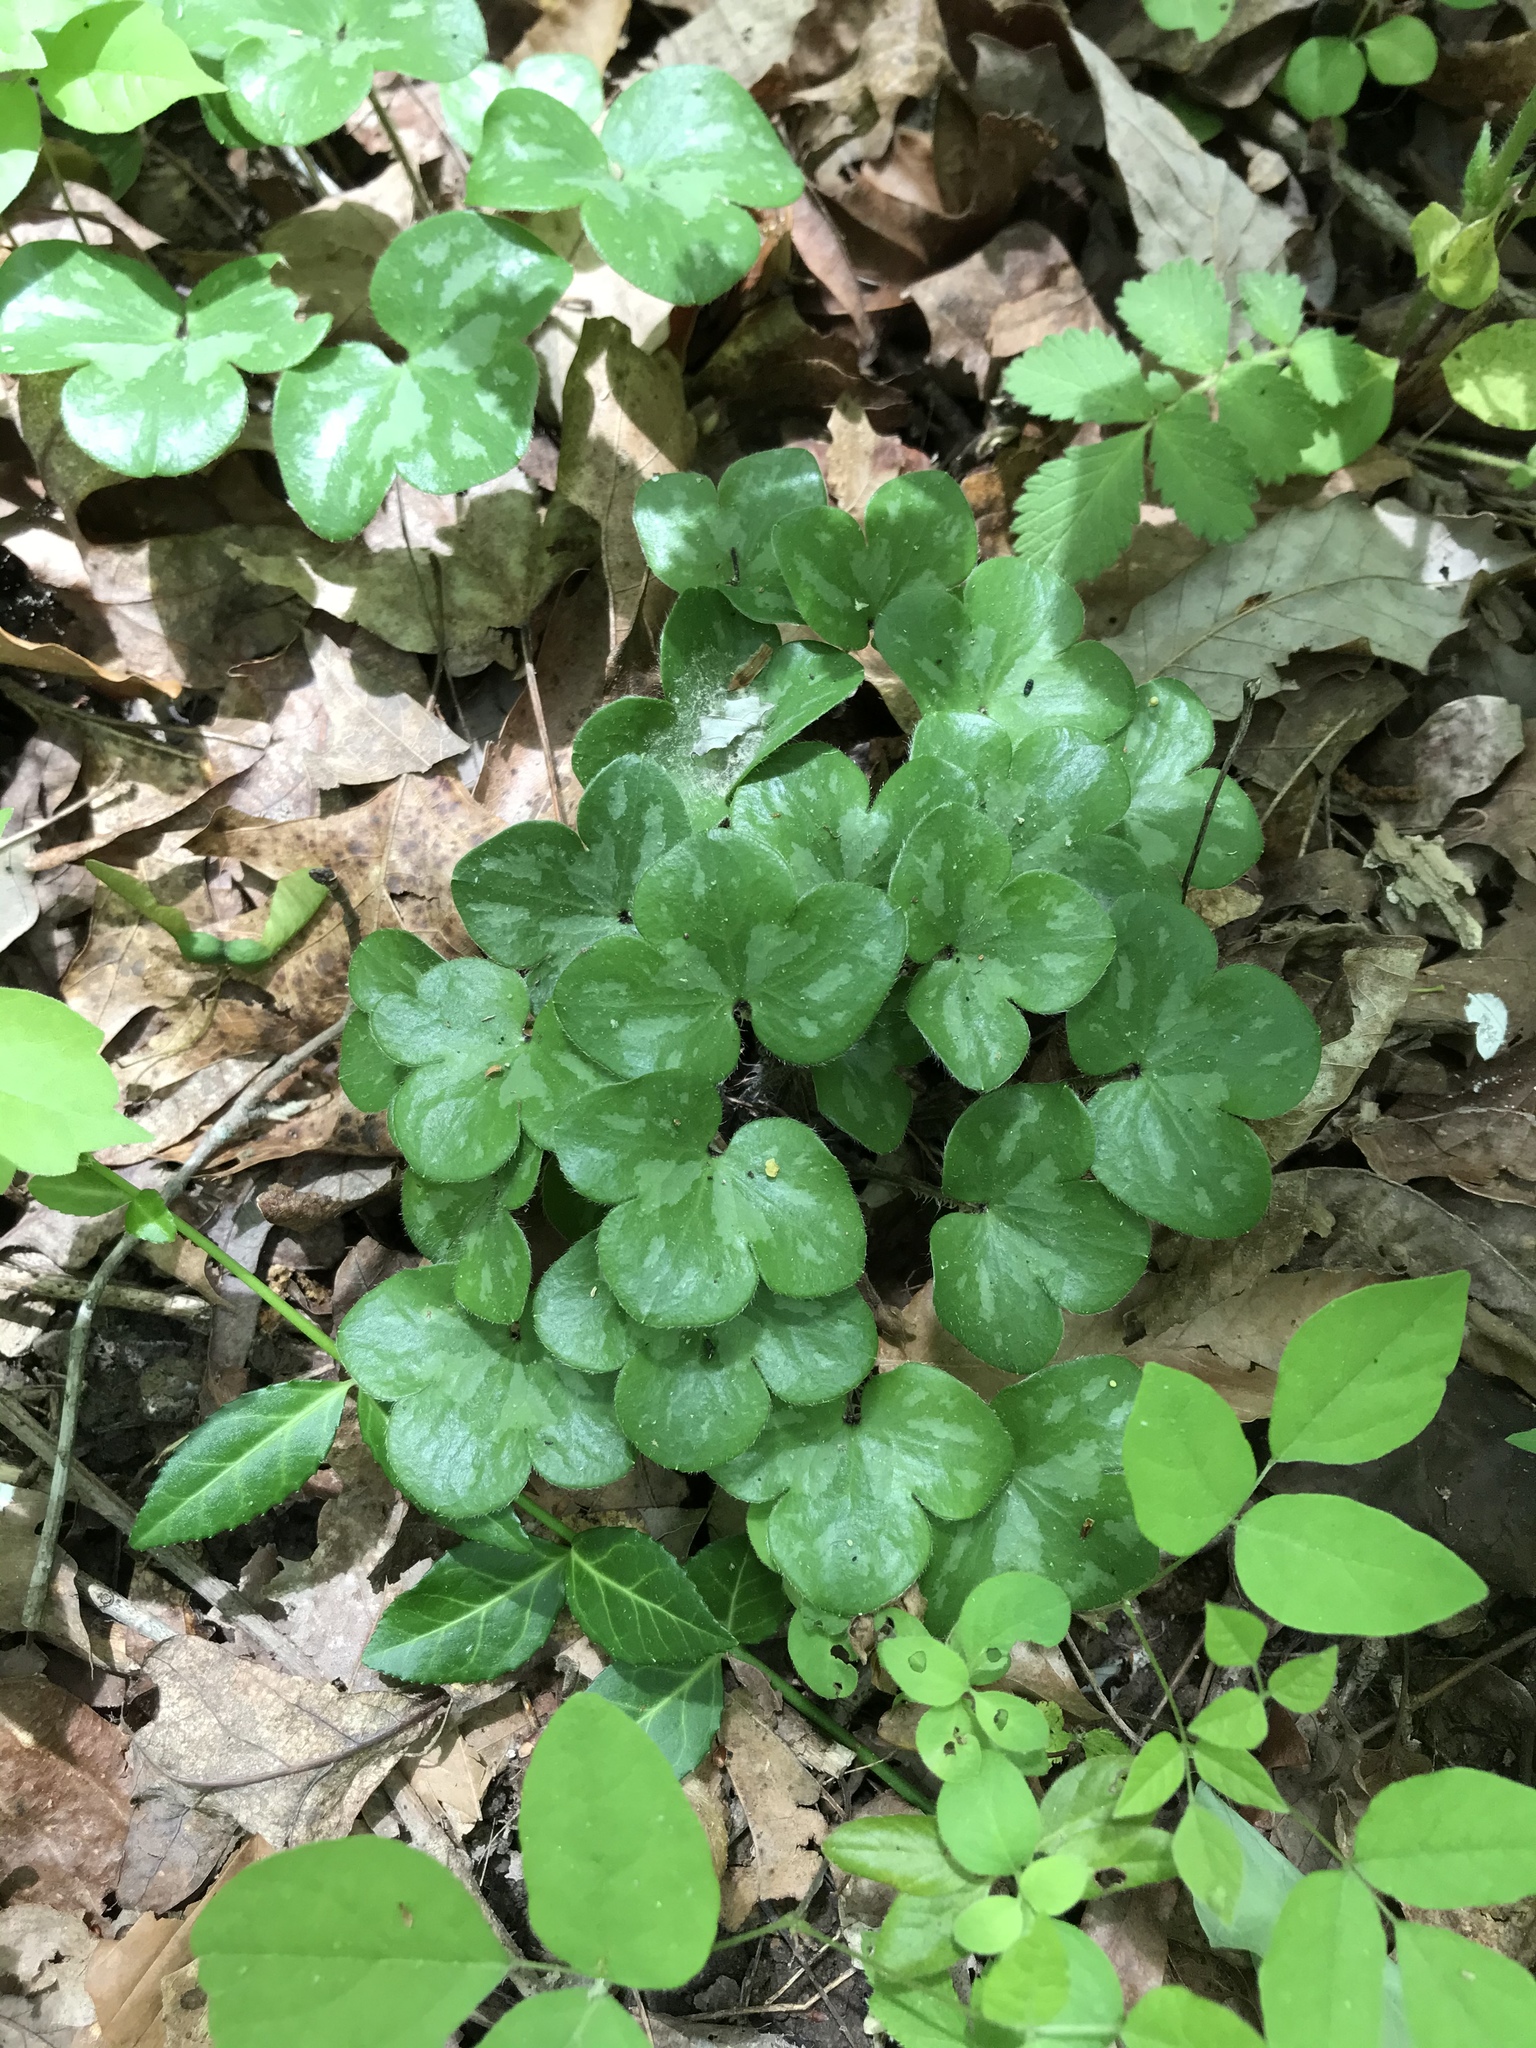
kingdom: Plantae
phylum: Tracheophyta
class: Magnoliopsida
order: Ranunculales
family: Ranunculaceae
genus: Hepatica
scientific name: Hepatica americana
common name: American hepatica
